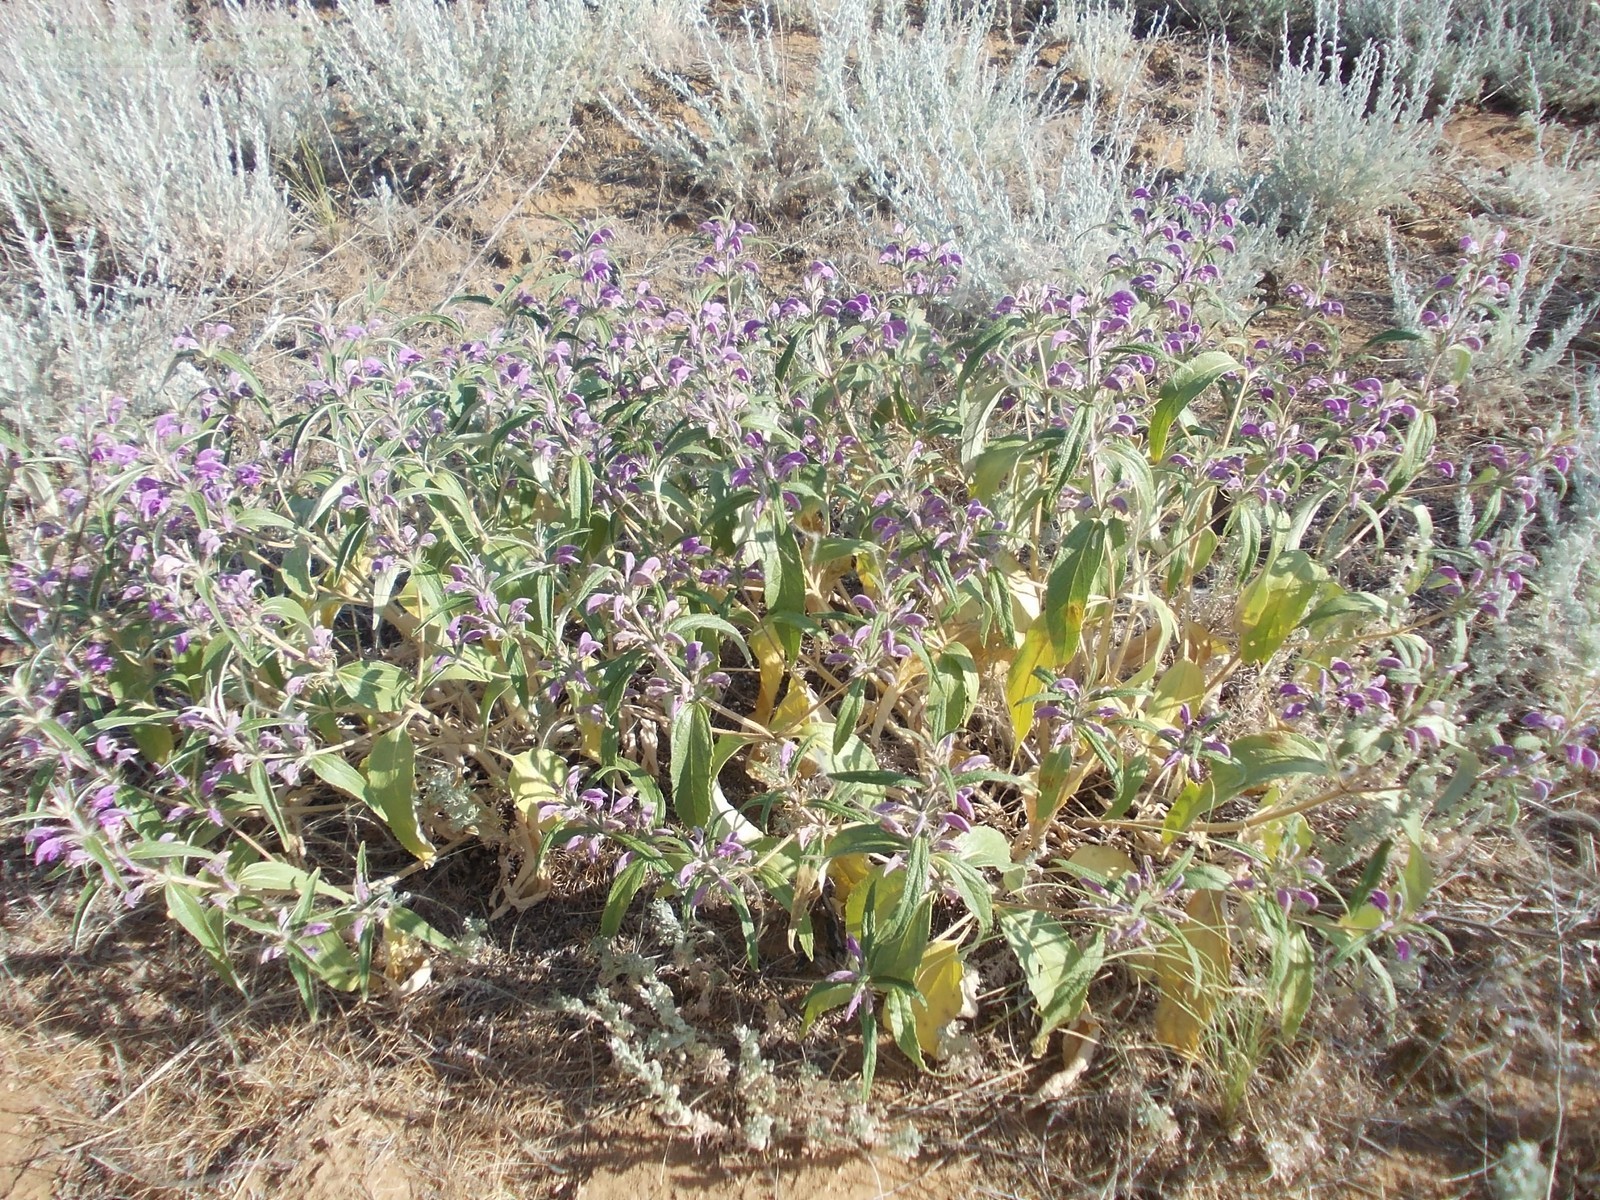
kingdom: Plantae
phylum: Tracheophyta
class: Magnoliopsida
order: Lamiales
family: Lamiaceae
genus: Phlomis
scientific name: Phlomis herba-venti
